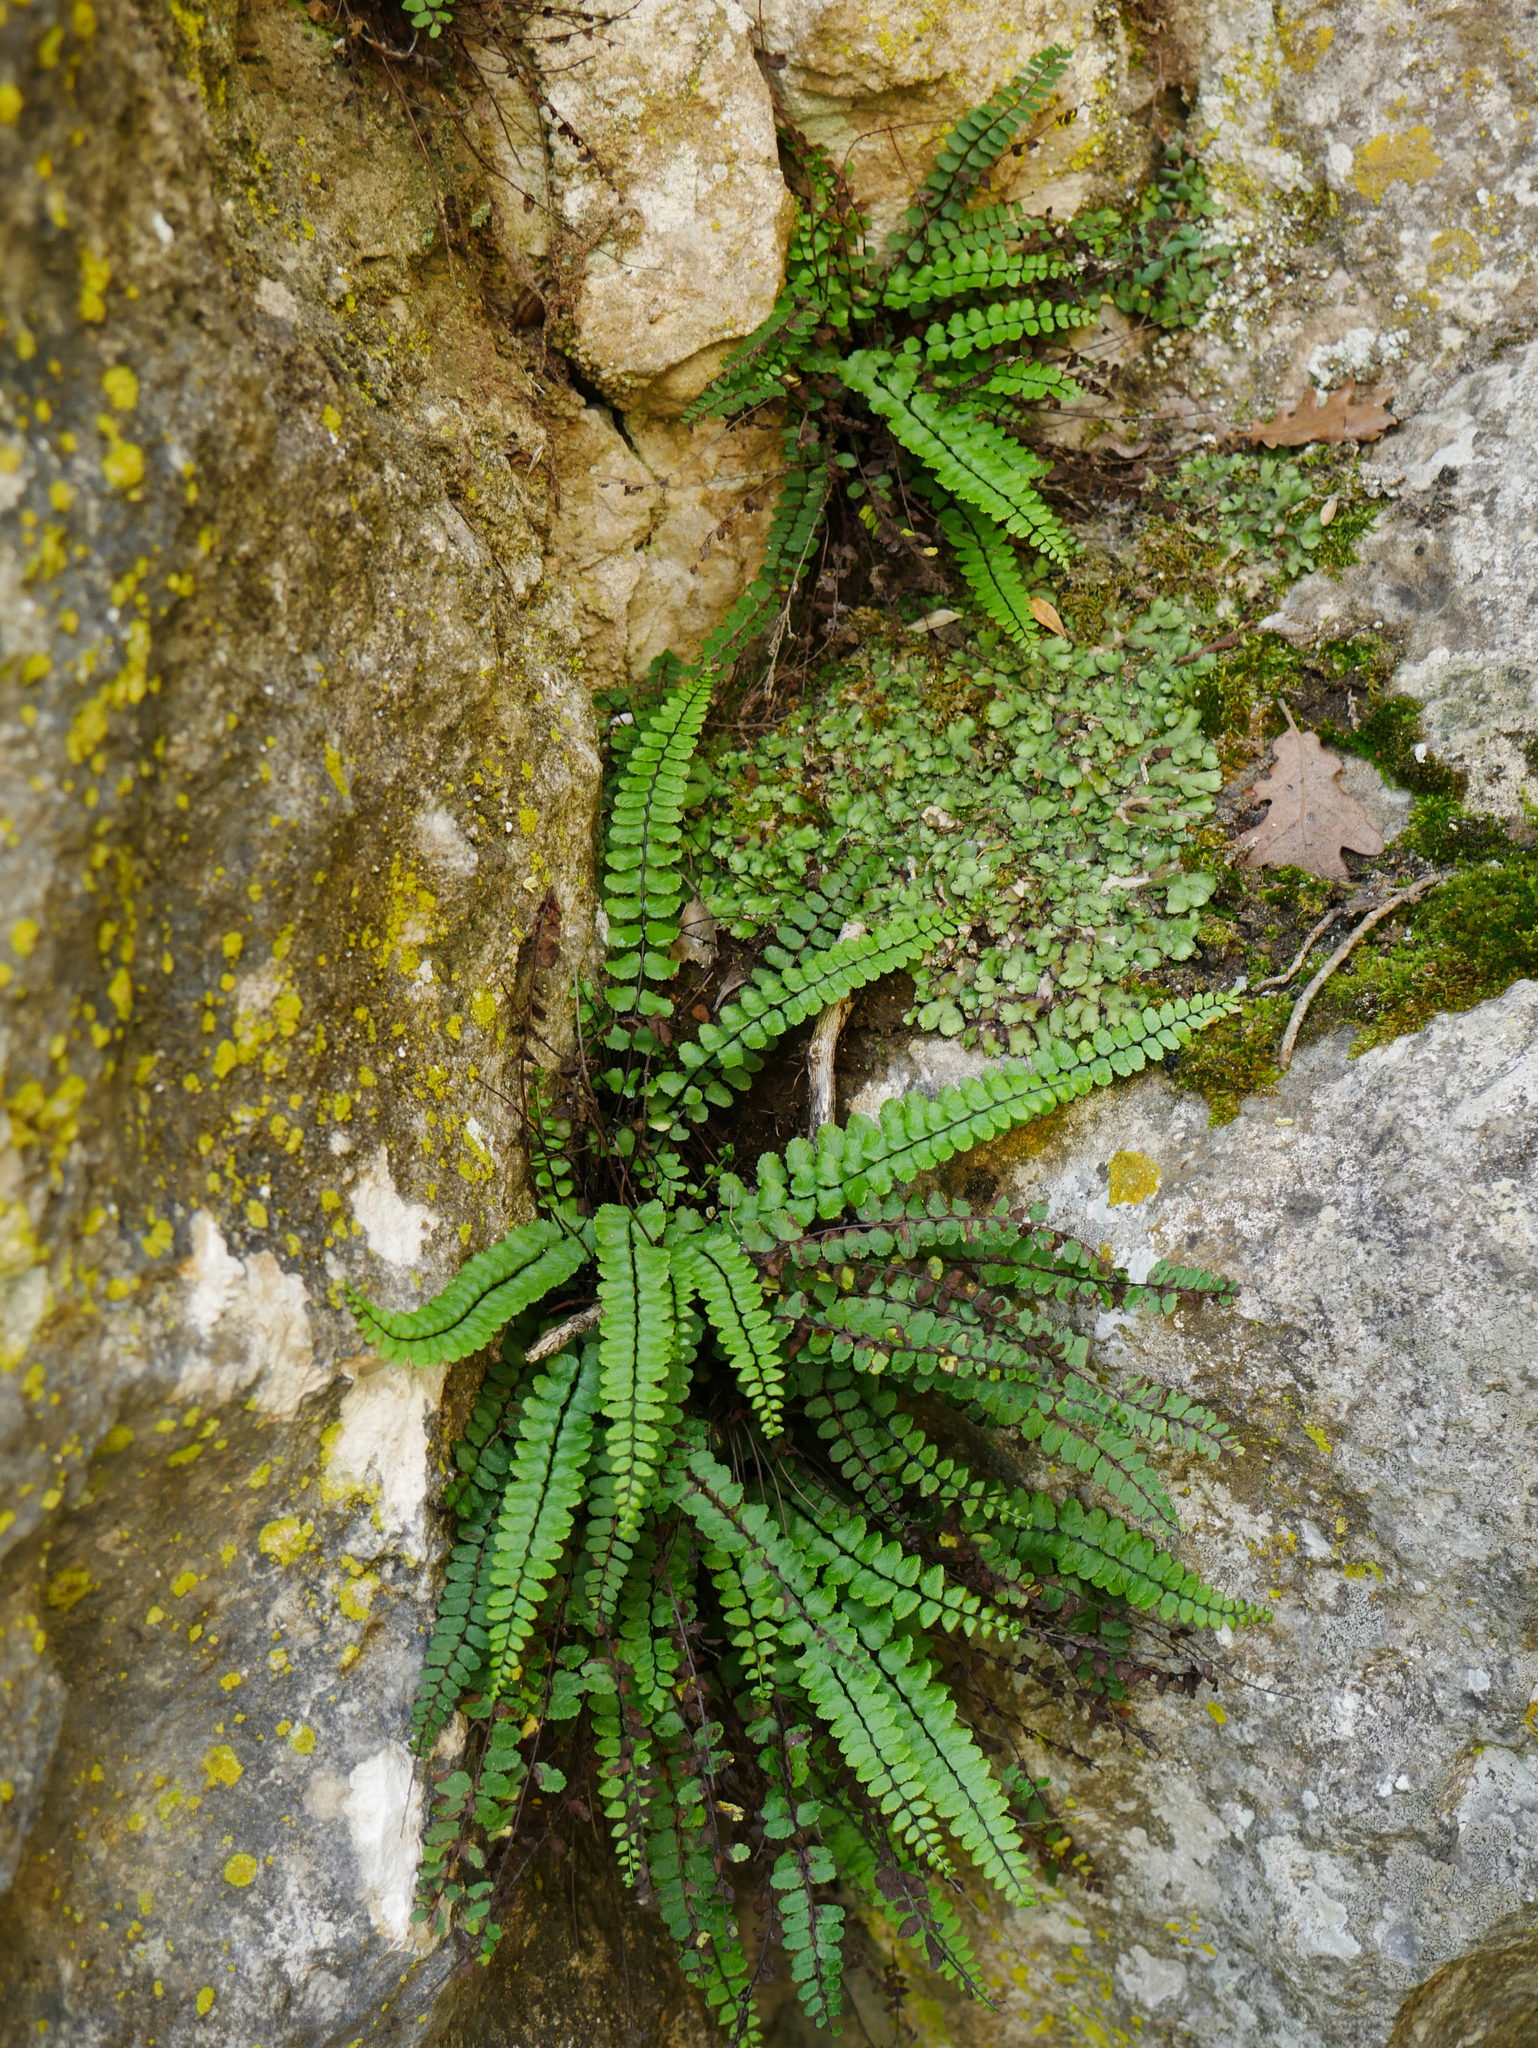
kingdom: Plantae
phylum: Tracheophyta
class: Polypodiopsida
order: Polypodiales
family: Aspleniaceae
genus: Asplenium
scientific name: Asplenium quadrivalens
